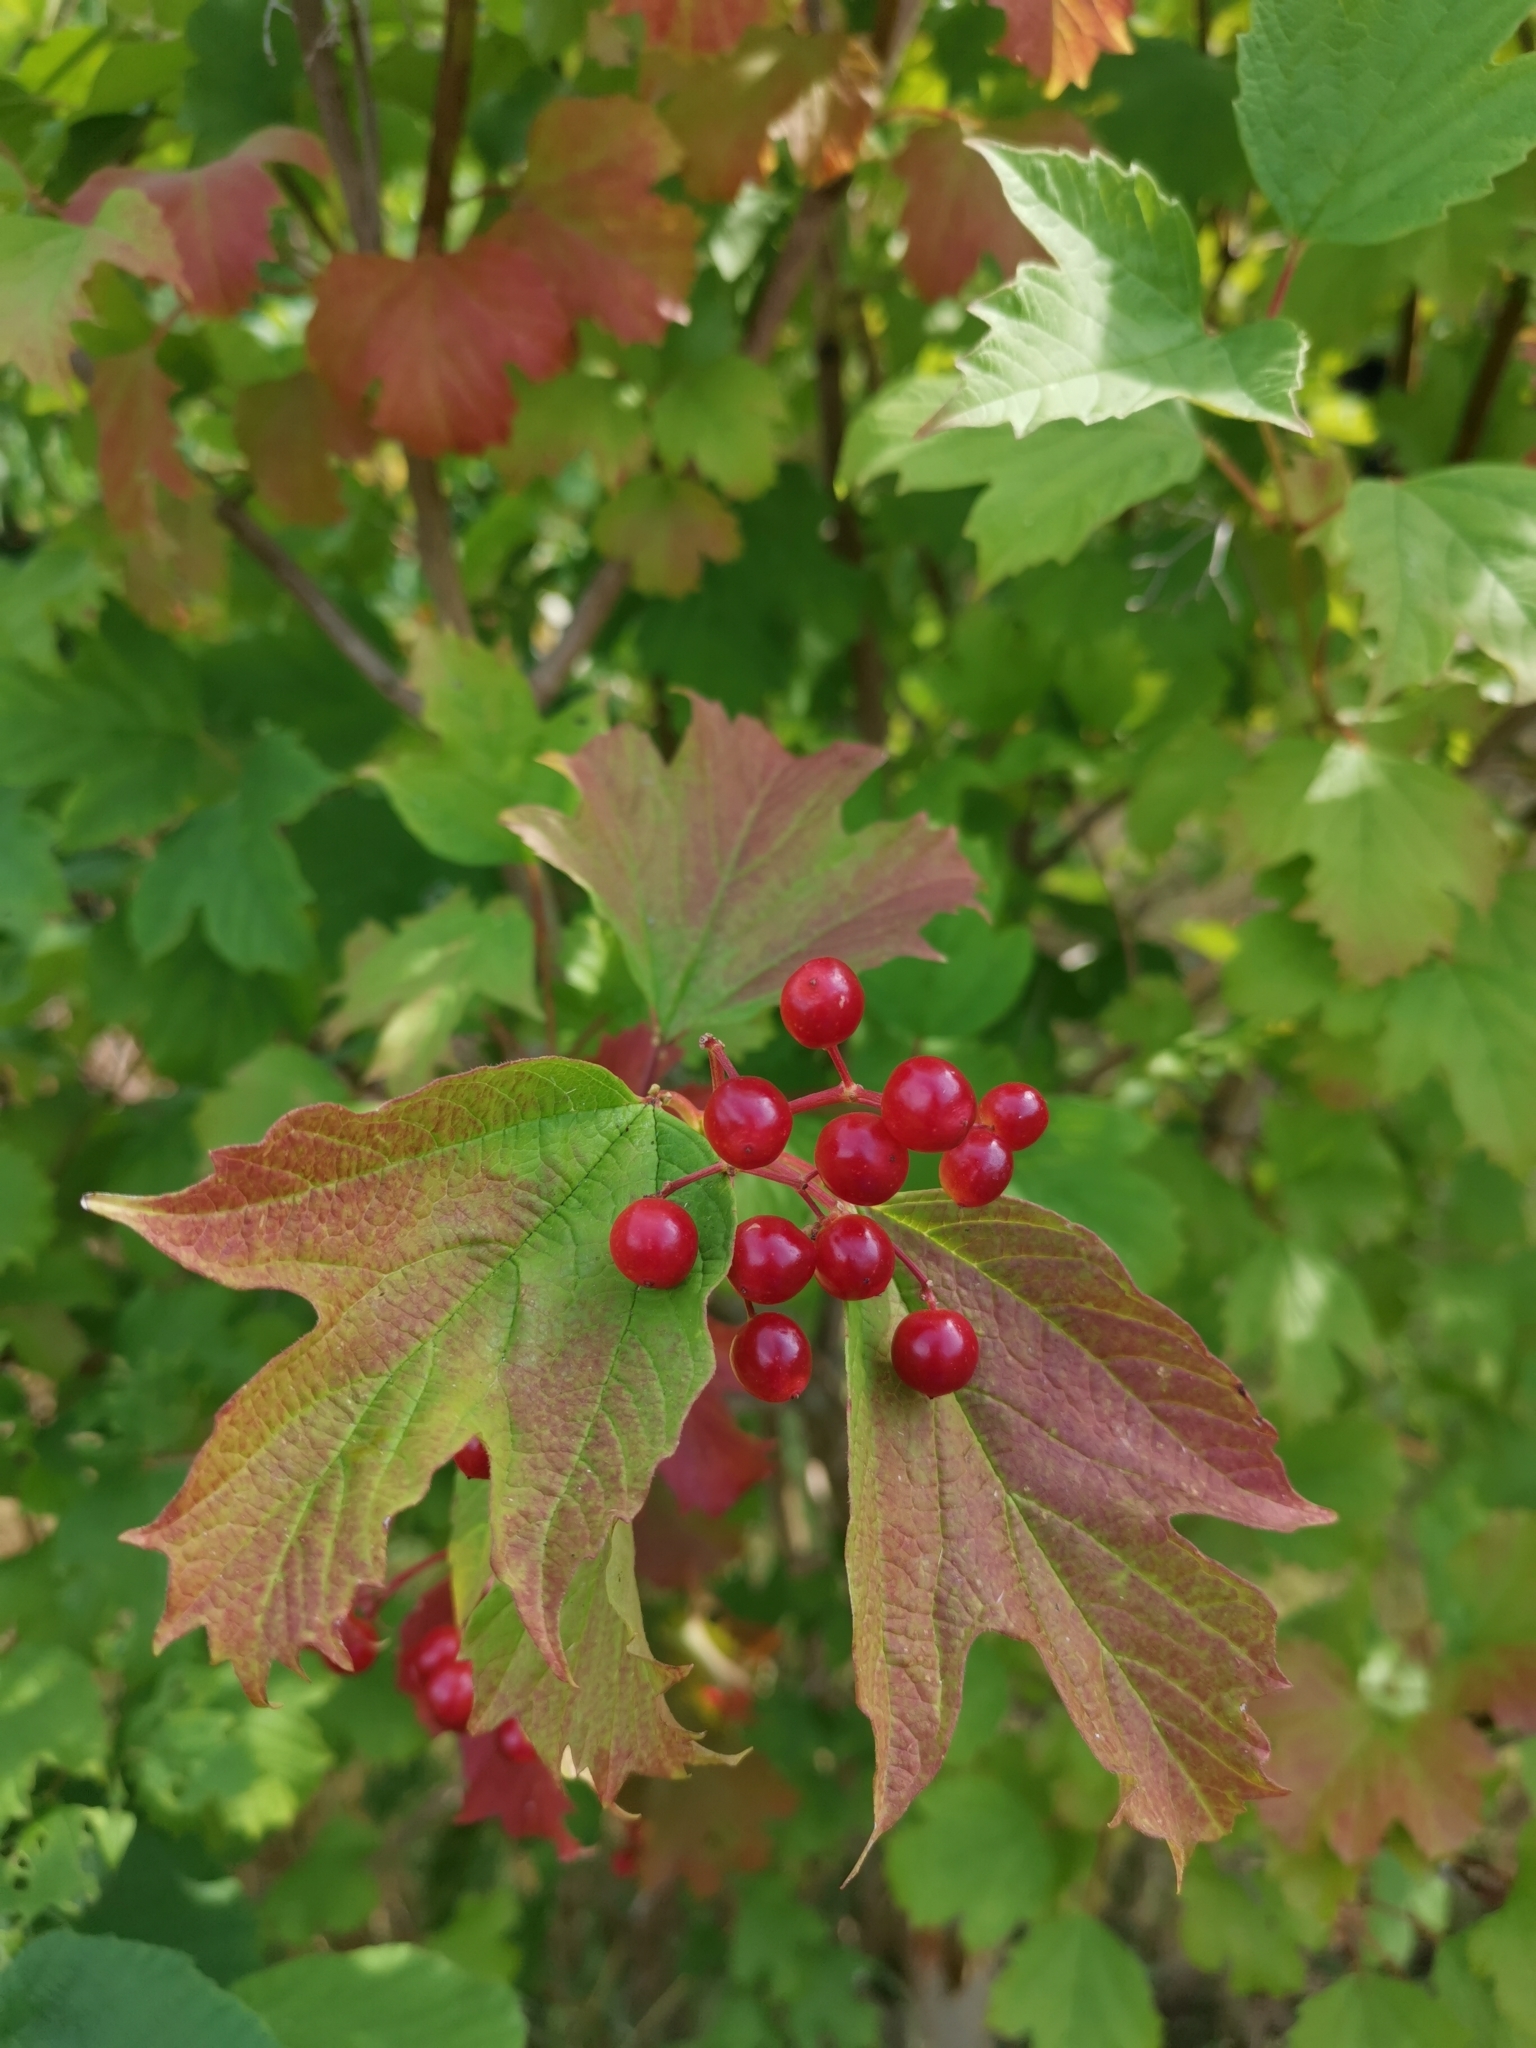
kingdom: Plantae
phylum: Tracheophyta
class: Magnoliopsida
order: Dipsacales
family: Viburnaceae
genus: Viburnum
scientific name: Viburnum opulus
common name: Guelder-rose
